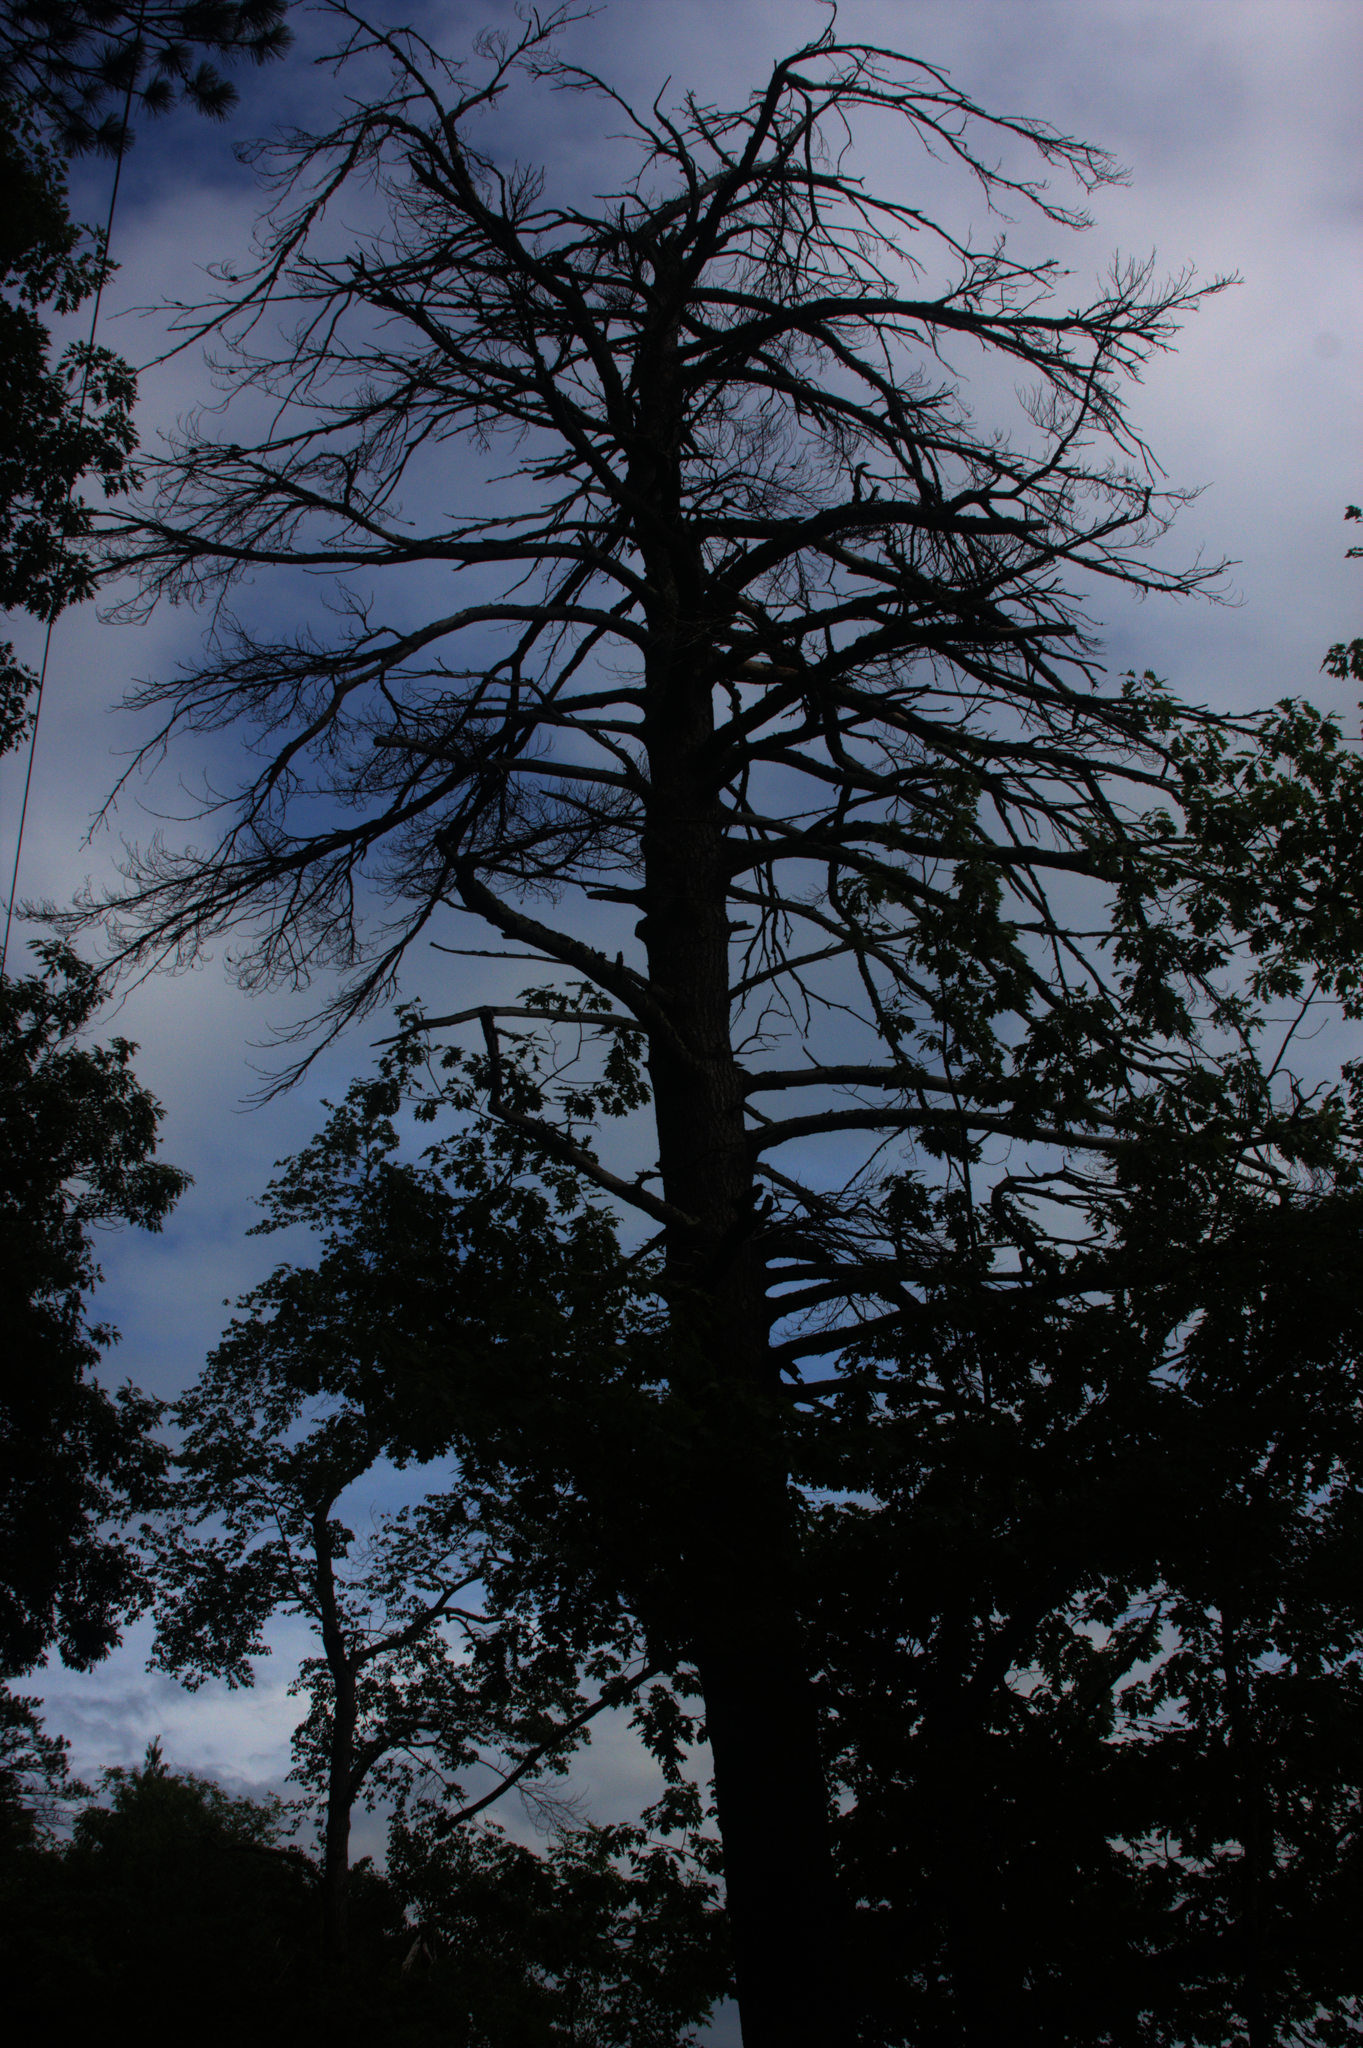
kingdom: Plantae
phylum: Tracheophyta
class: Pinopsida
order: Pinales
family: Pinaceae
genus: Pinus
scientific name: Pinus strobus
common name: Weymouth pine
